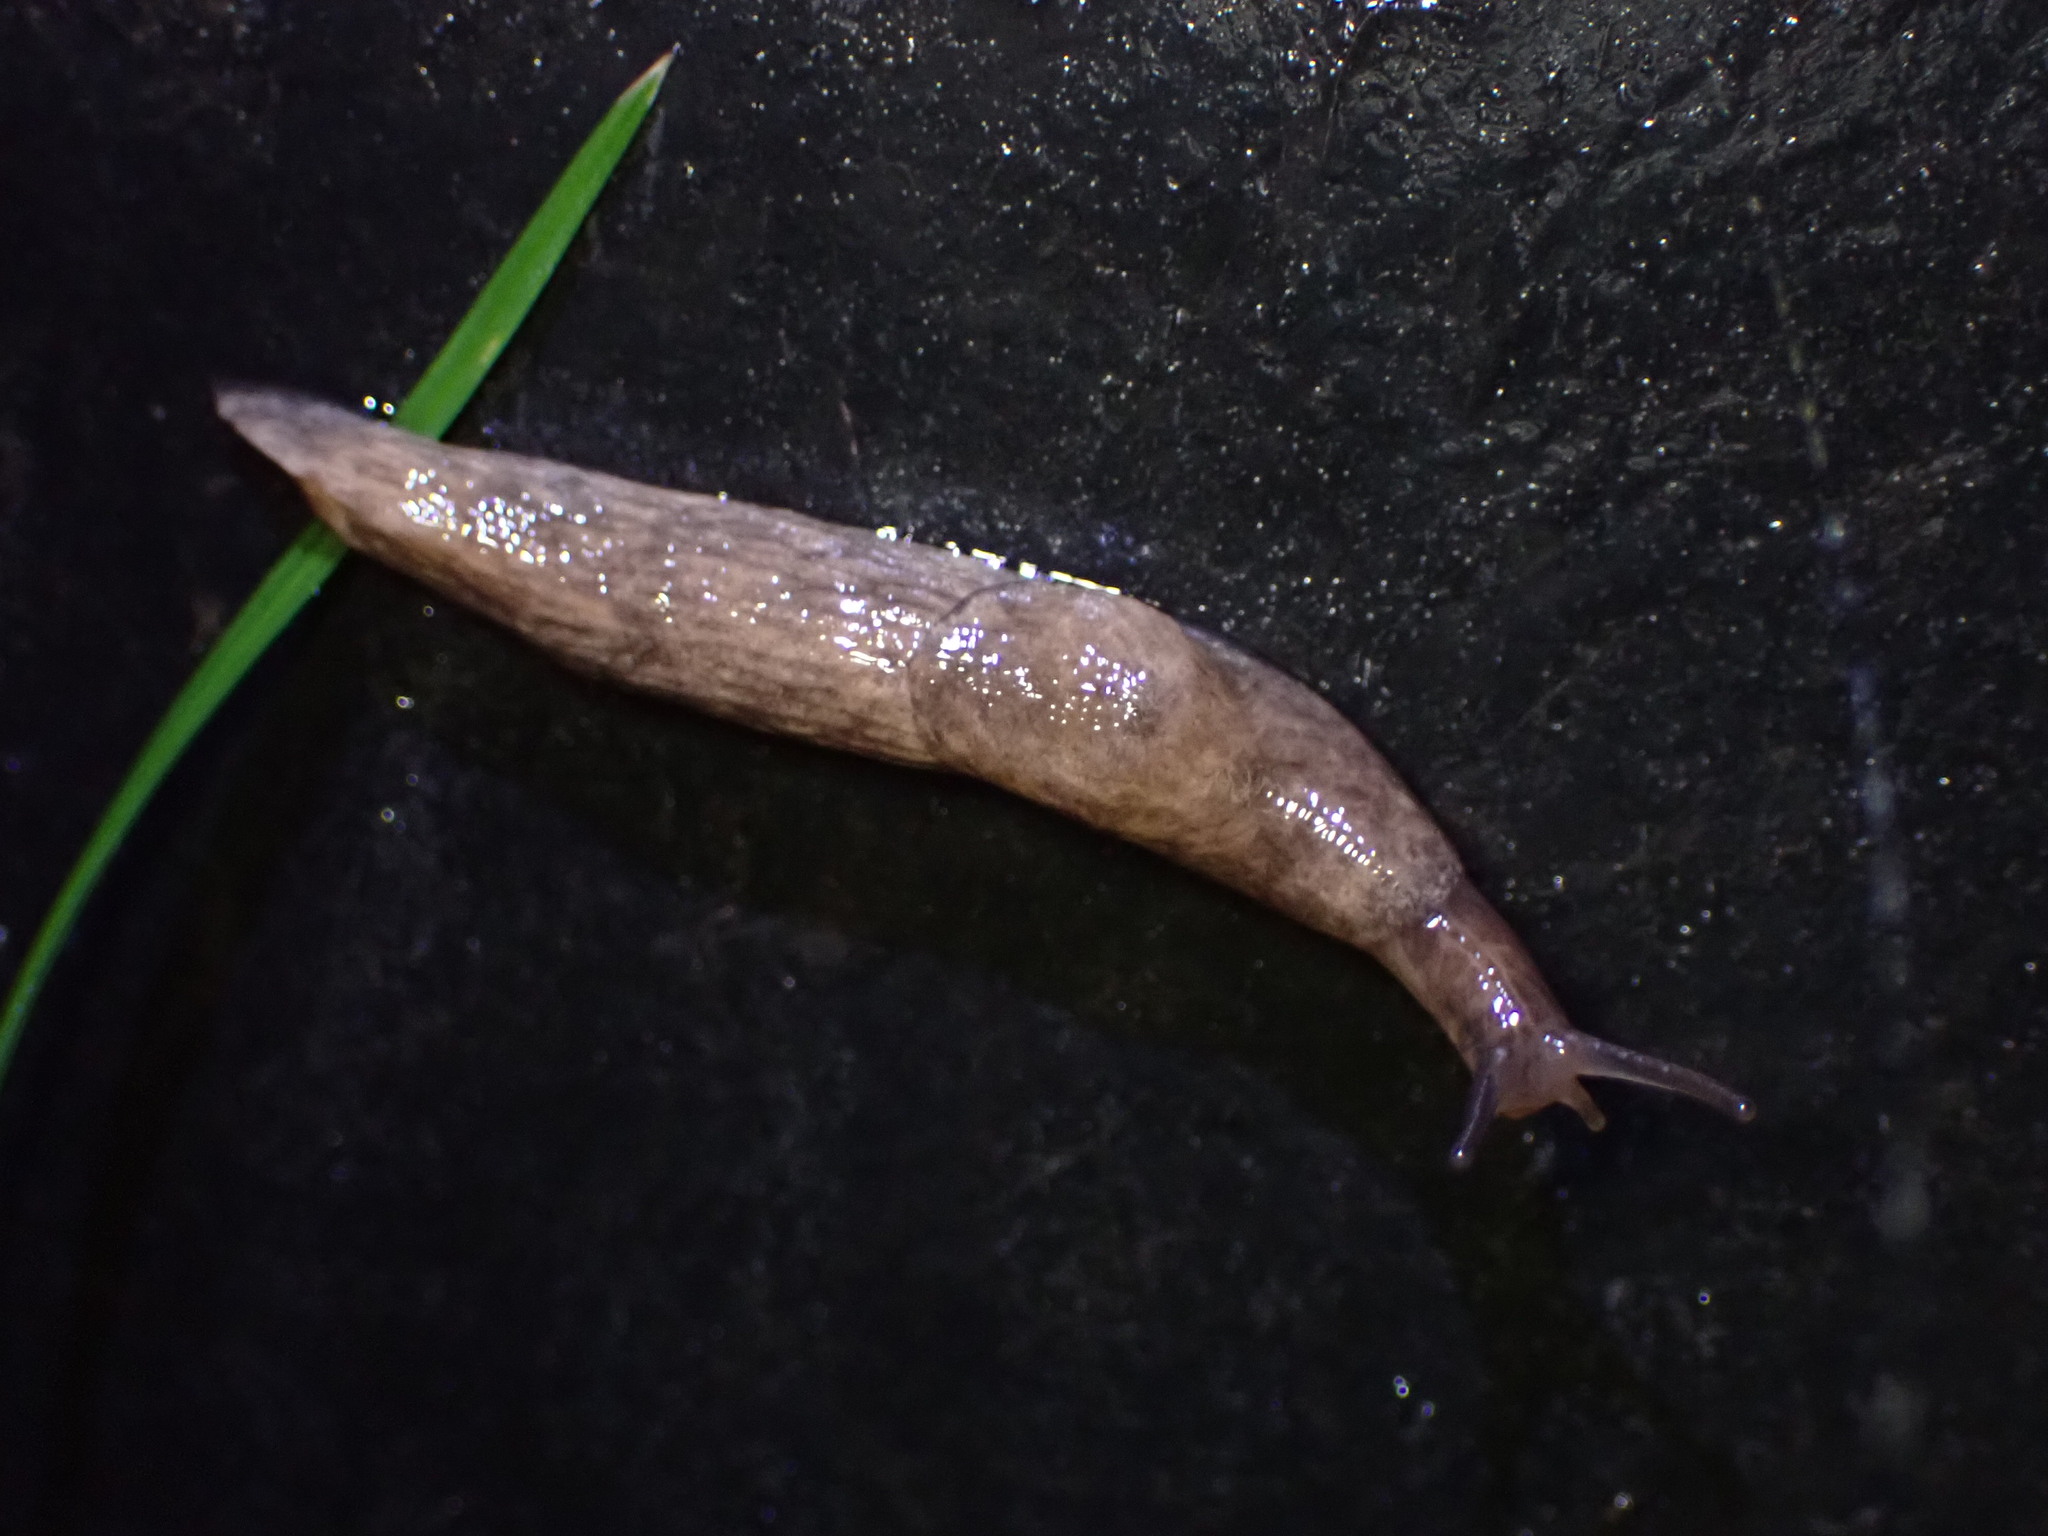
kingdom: Animalia
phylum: Mollusca
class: Gastropoda
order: Stylommatophora
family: Agriolimacidae
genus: Deroceras
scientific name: Deroceras reticulatum
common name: Gray field slug
